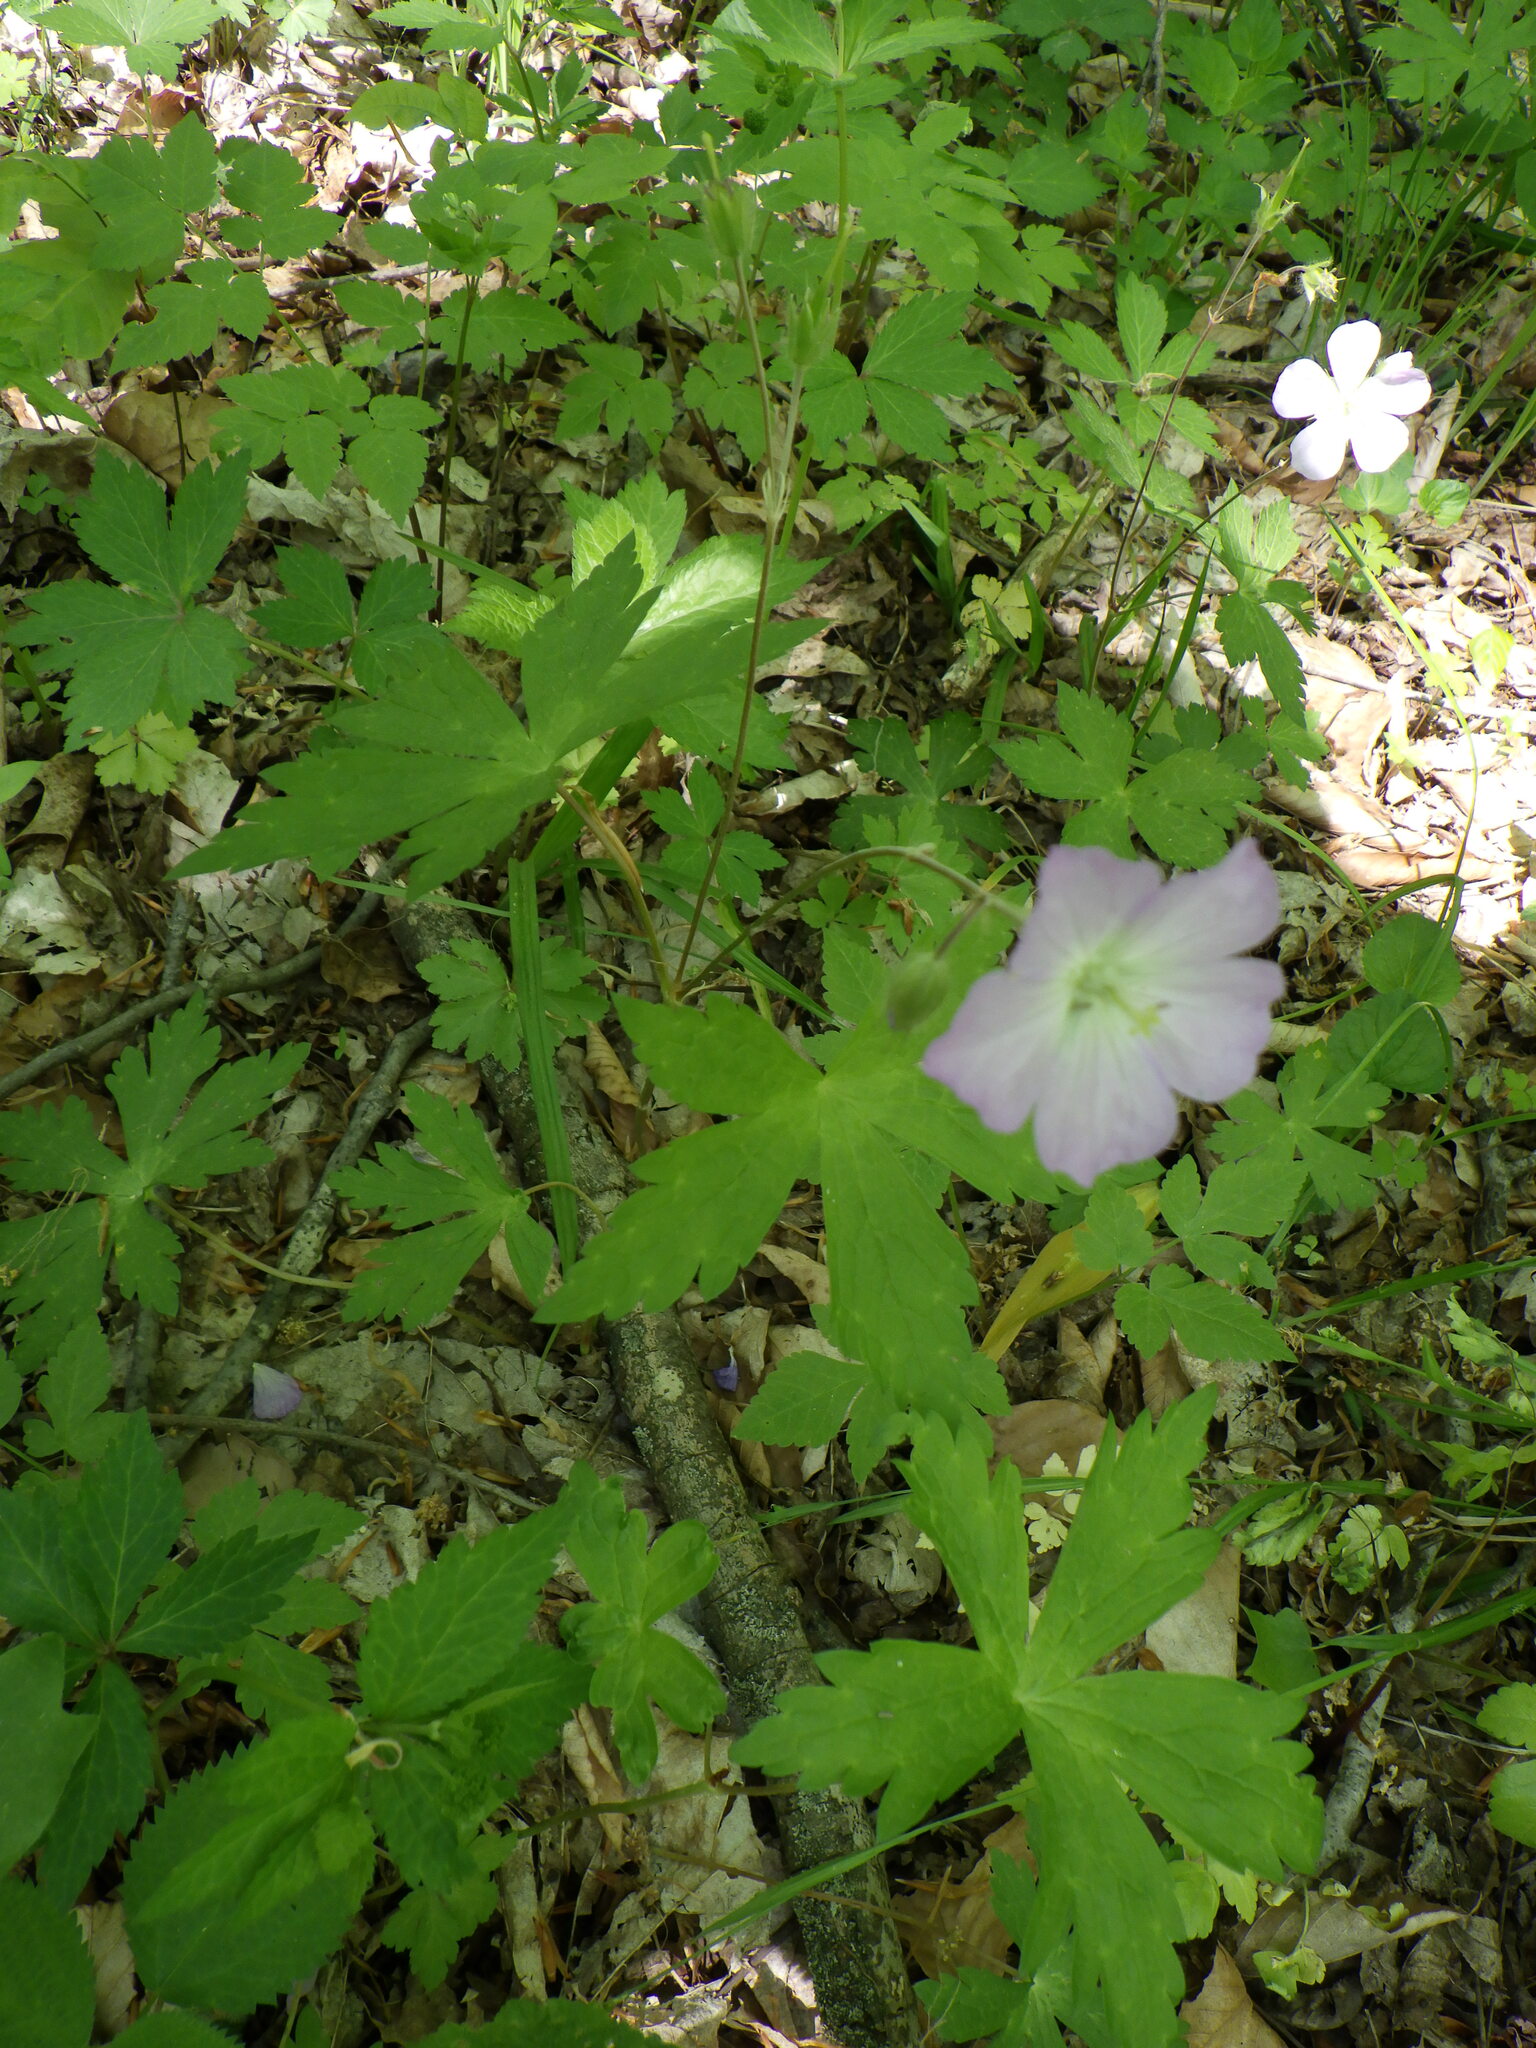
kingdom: Plantae
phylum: Tracheophyta
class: Magnoliopsida
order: Geraniales
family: Geraniaceae
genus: Geranium
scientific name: Geranium maculatum
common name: Spotted geranium
